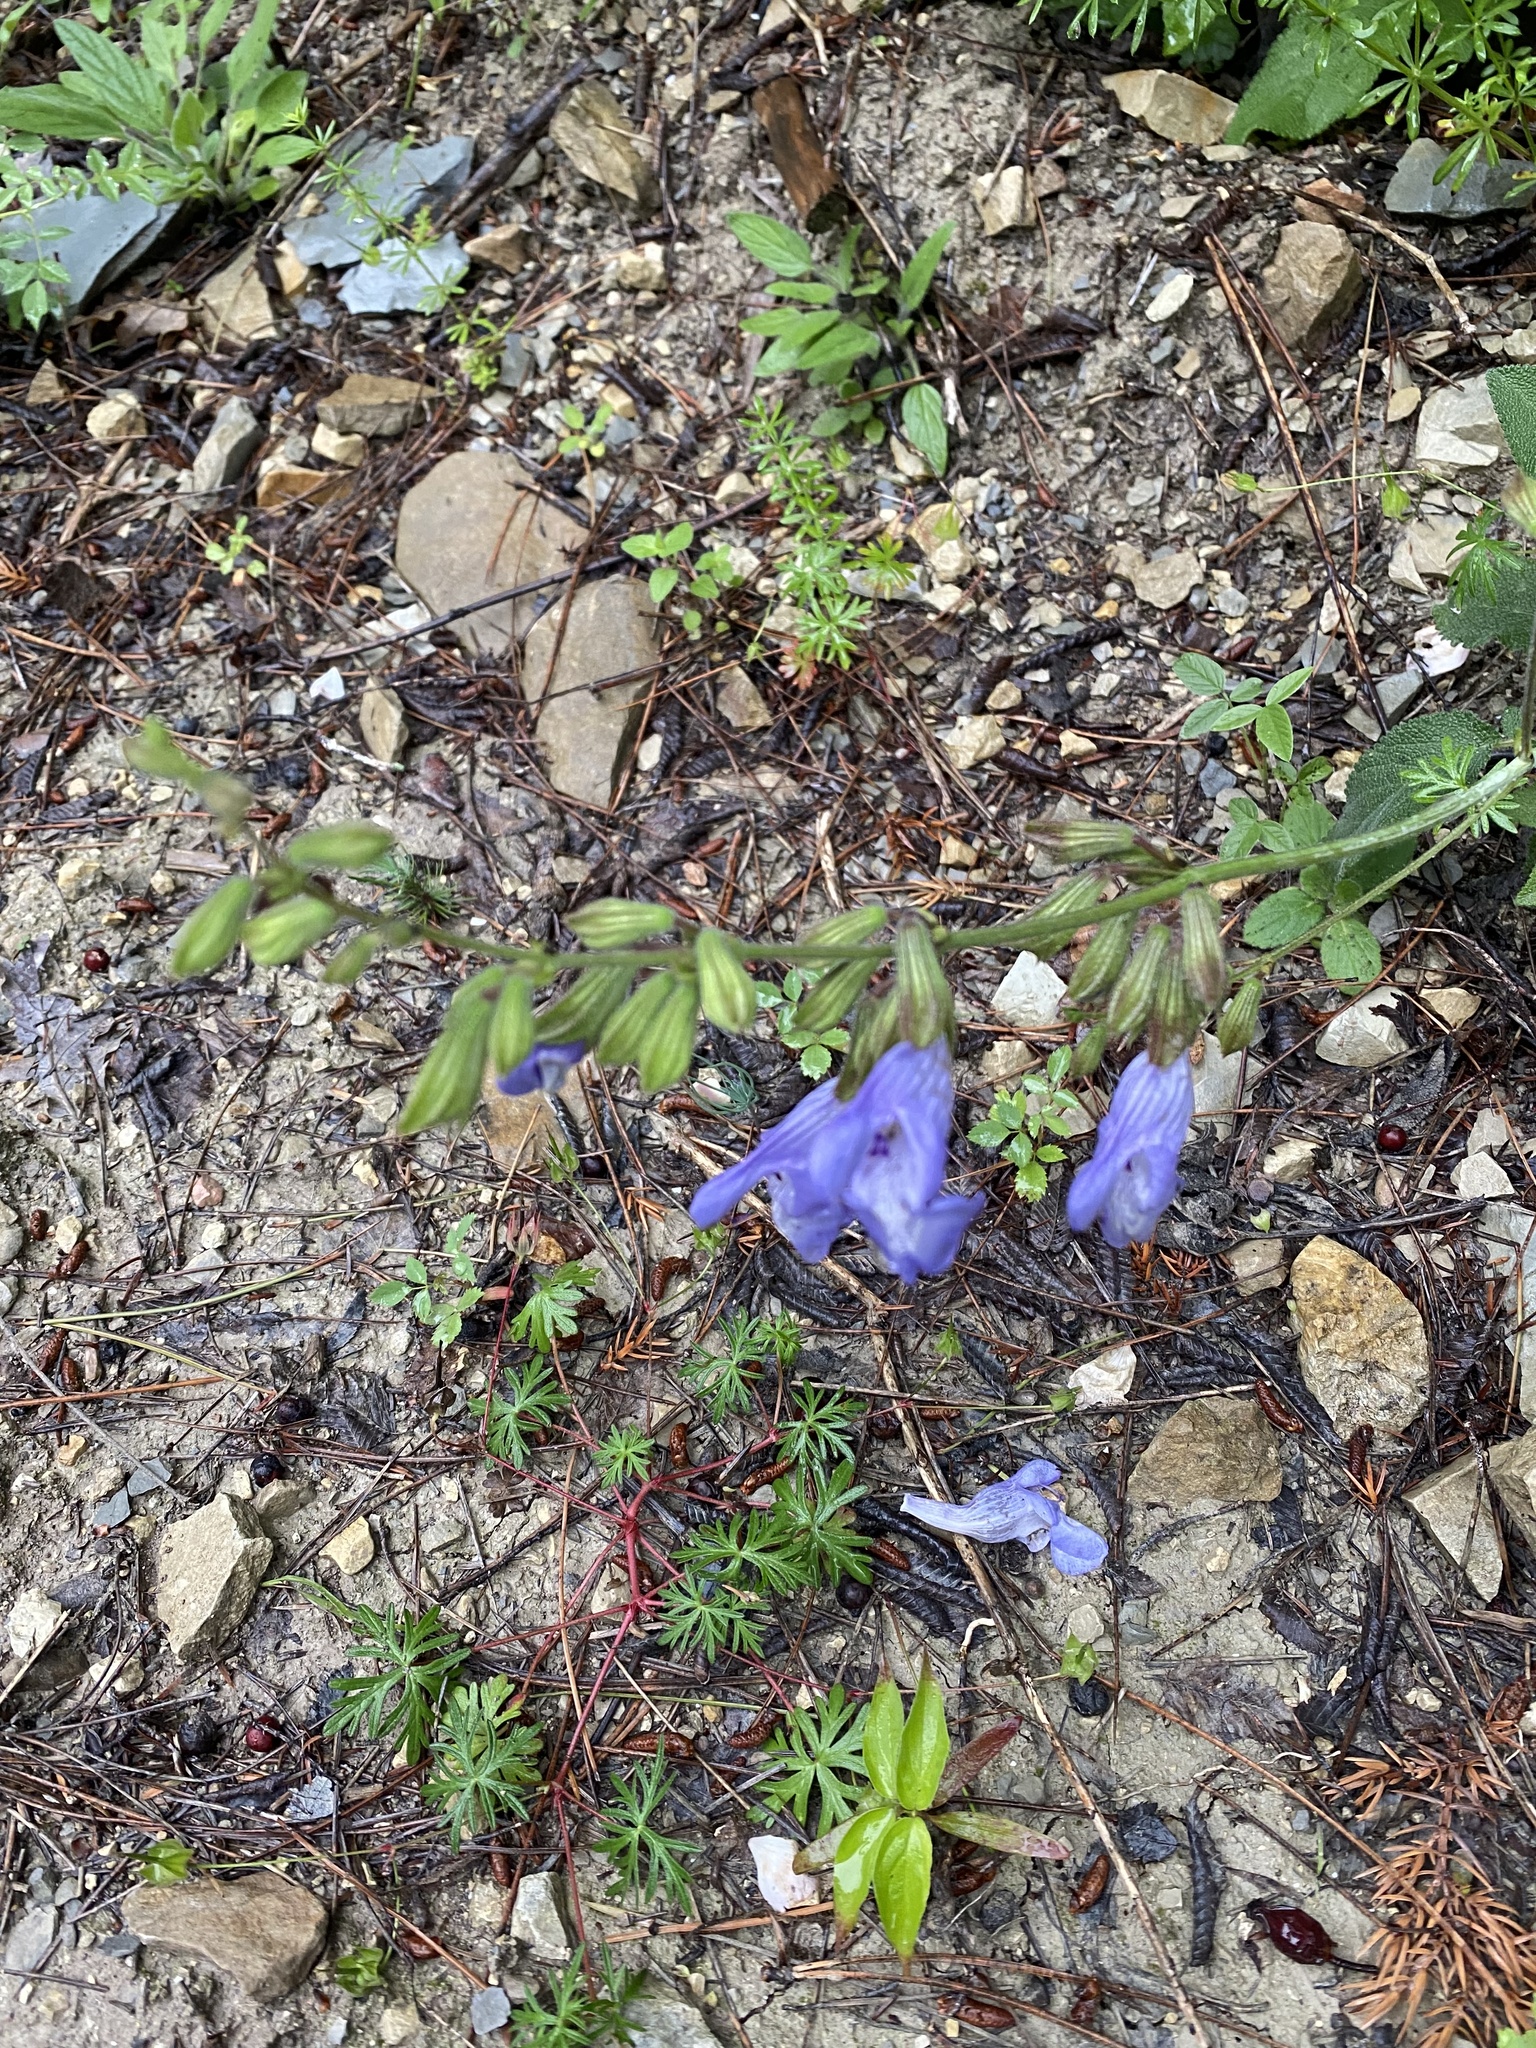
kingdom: Plantae
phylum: Tracheophyta
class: Magnoliopsida
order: Lamiales
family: Lamiaceae
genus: Salvia
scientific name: Salvia ringens
